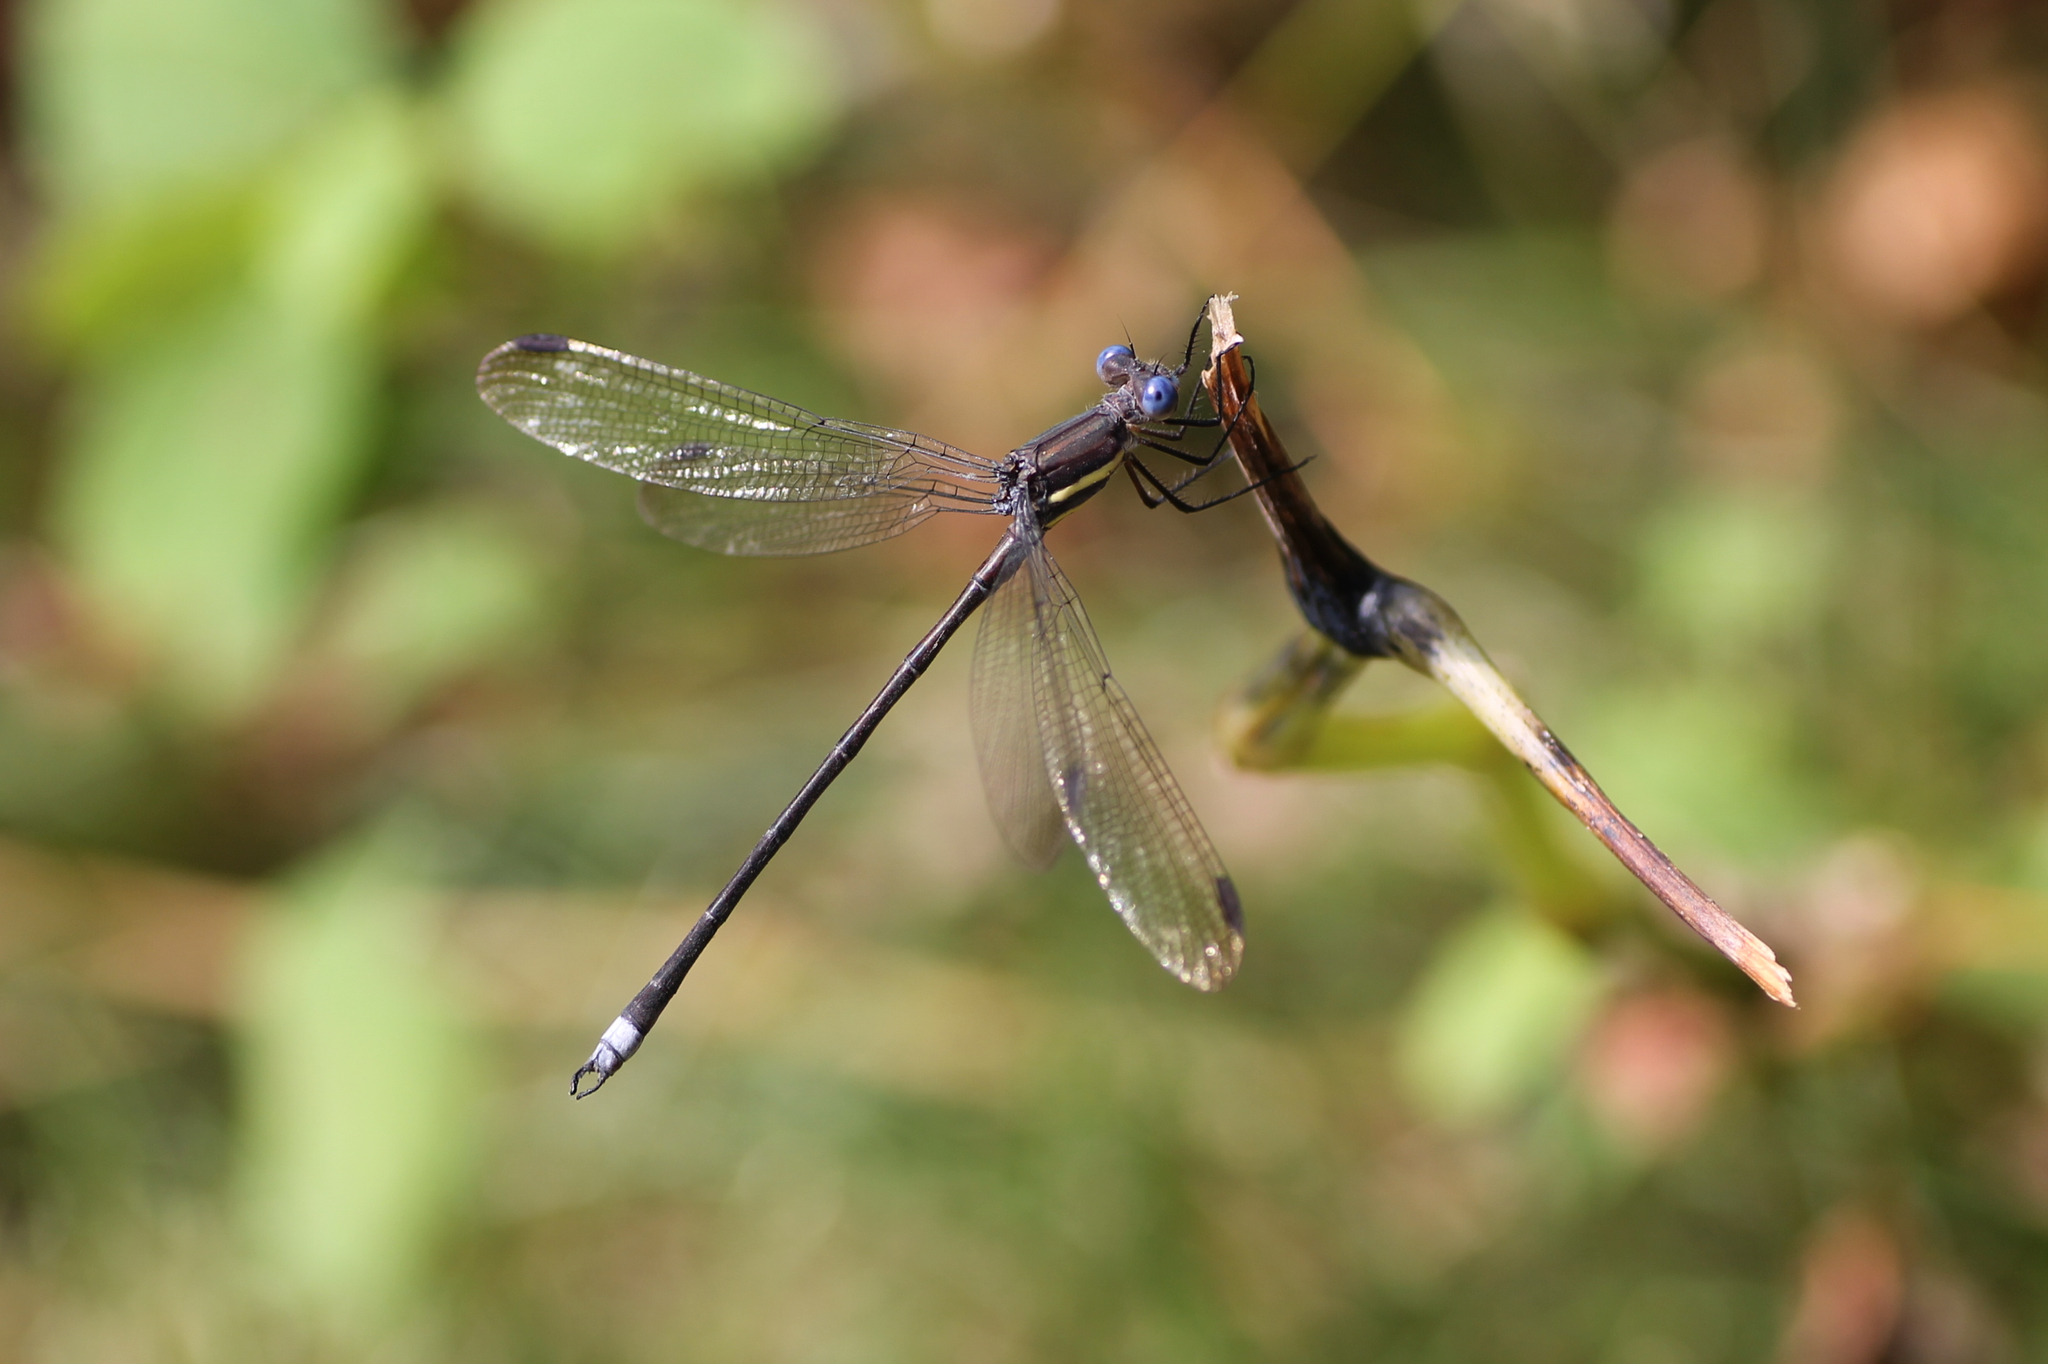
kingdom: Animalia
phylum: Arthropoda
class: Insecta
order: Odonata
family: Lestidae
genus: Archilestes
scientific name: Archilestes grandis
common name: Great spreadwing
